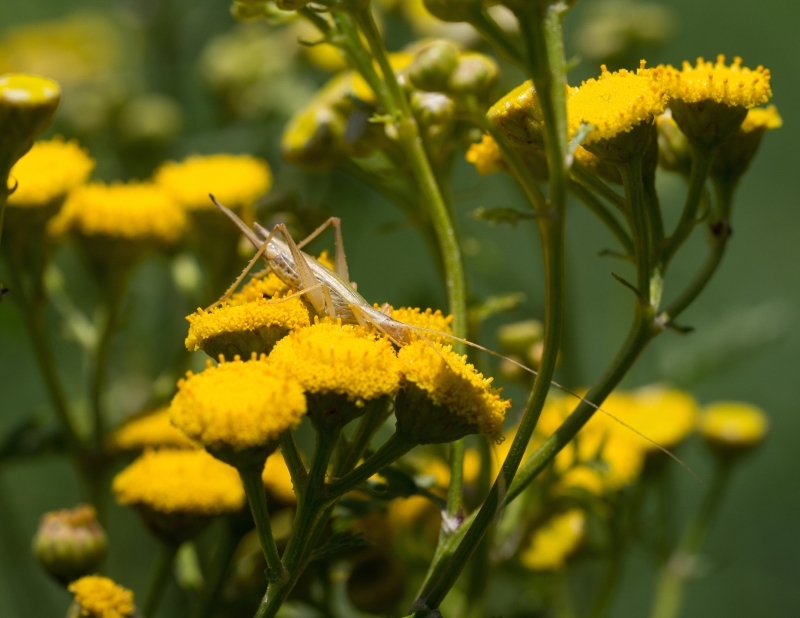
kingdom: Animalia
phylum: Arthropoda
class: Insecta
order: Orthoptera
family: Gryllidae
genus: Oecanthus
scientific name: Oecanthus pellucens
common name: Tree-cricket
